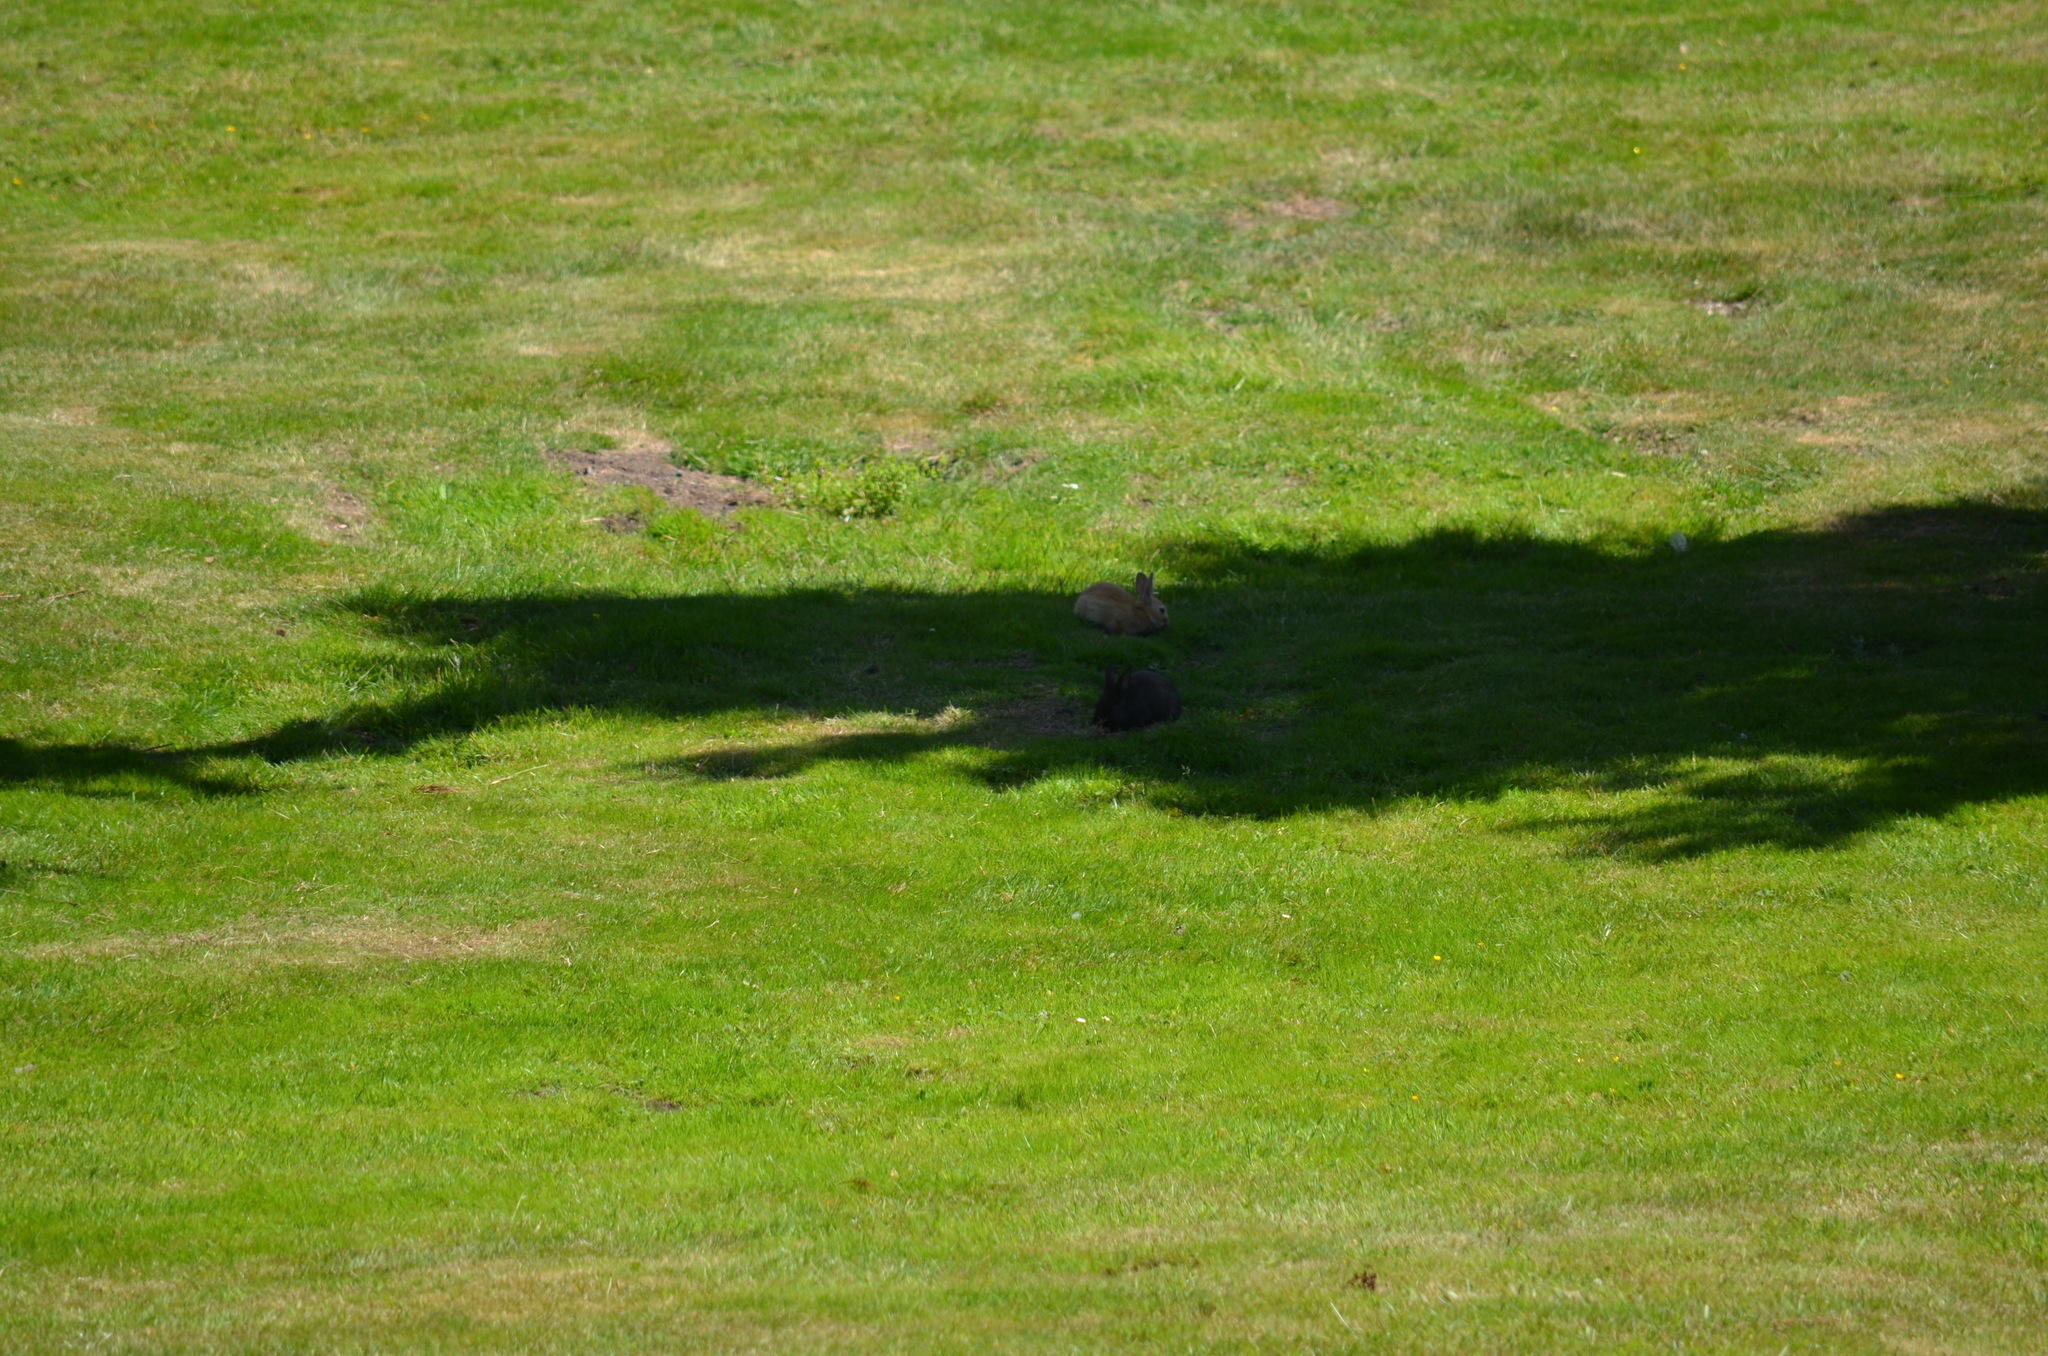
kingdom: Animalia
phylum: Chordata
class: Mammalia
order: Lagomorpha
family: Leporidae
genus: Oryctolagus
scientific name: Oryctolagus cuniculus
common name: European rabbit
